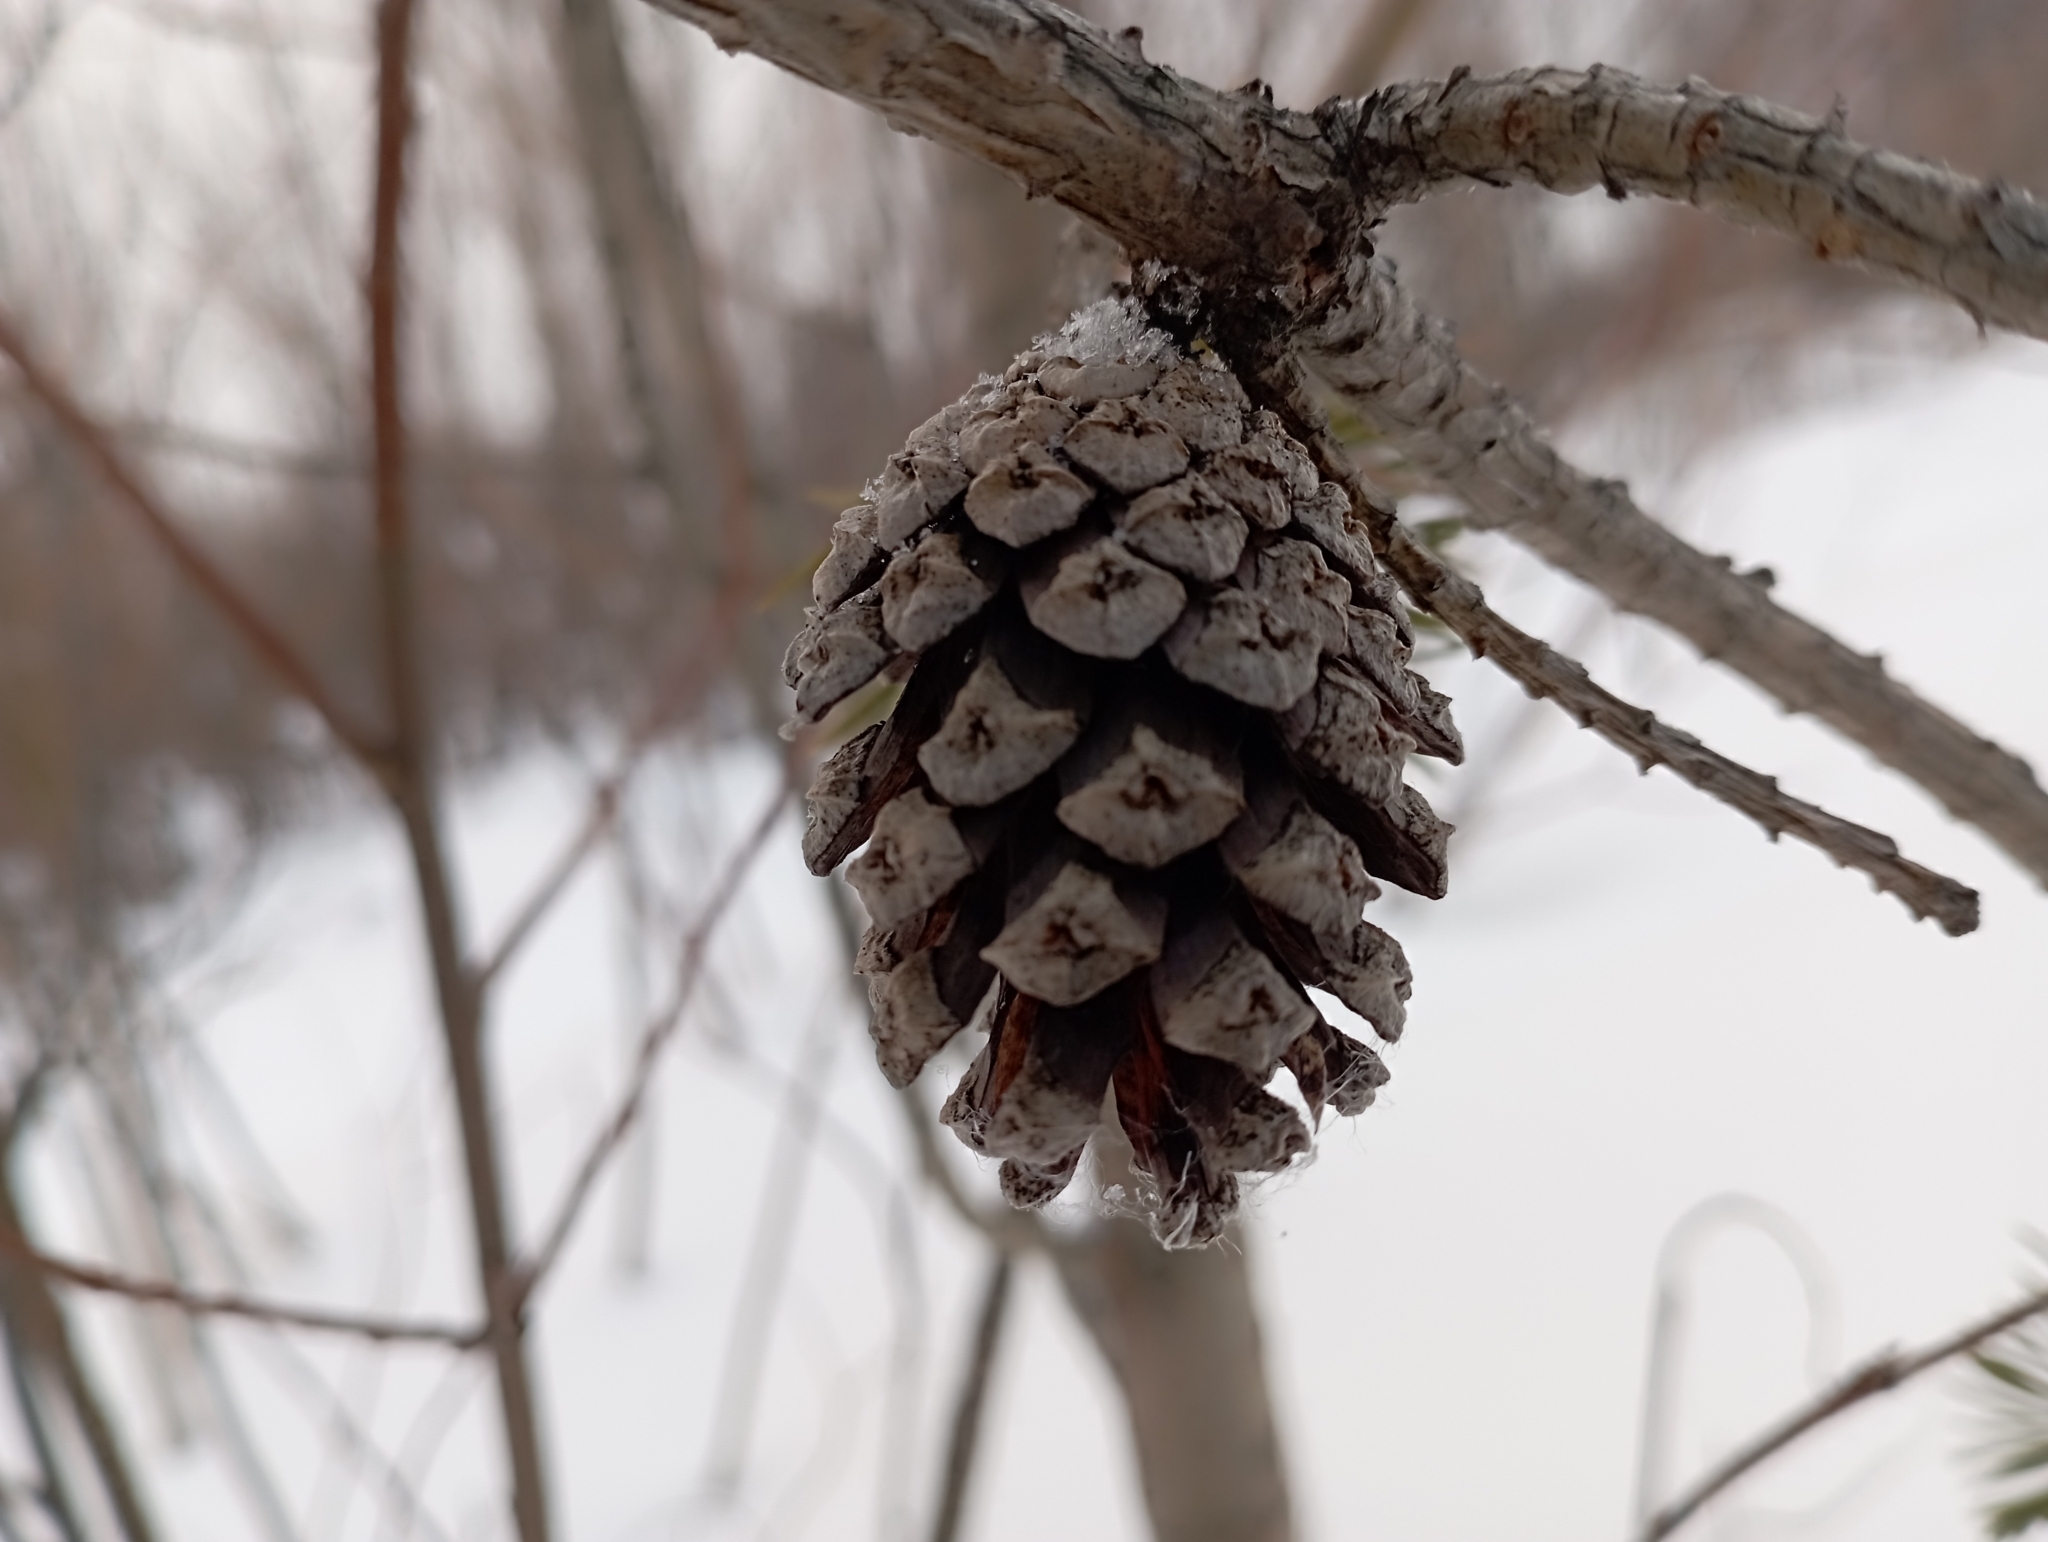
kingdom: Plantae
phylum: Tracheophyta
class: Pinopsida
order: Pinales
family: Pinaceae
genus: Pinus
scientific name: Pinus sylvestris
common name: Scots pine
